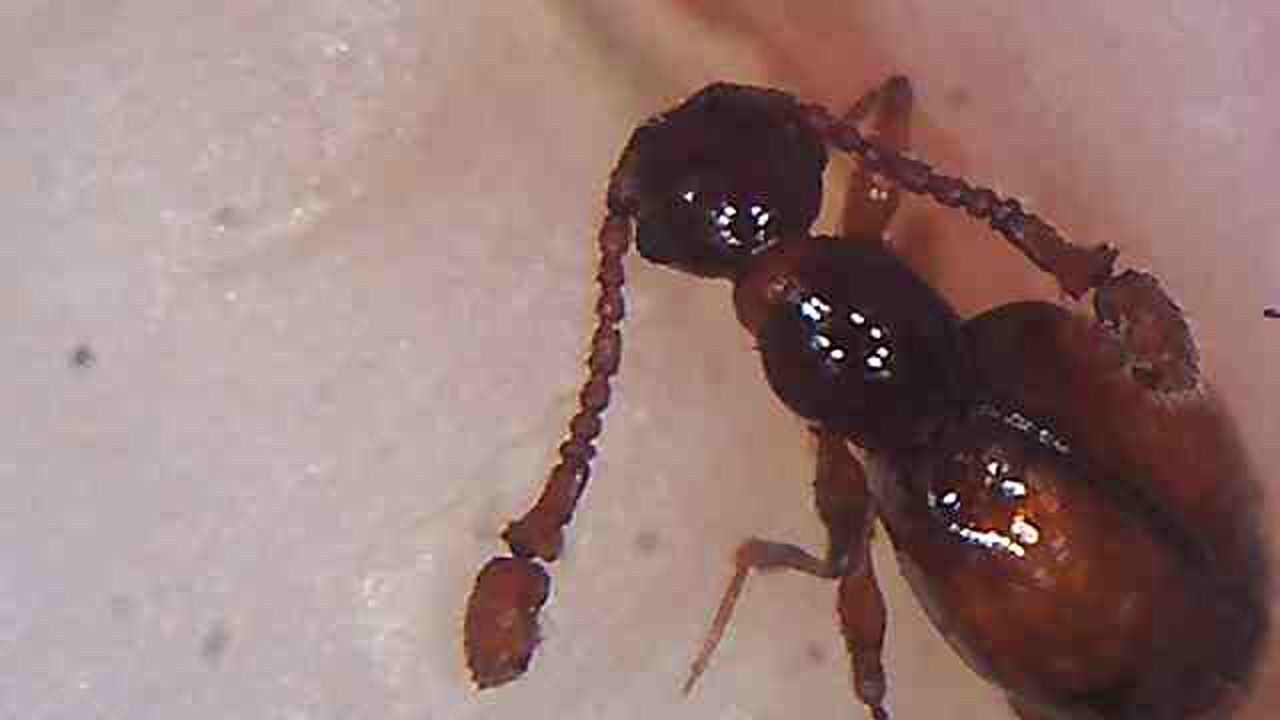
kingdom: Animalia
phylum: Arthropoda
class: Insecta
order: Coleoptera
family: Staphylinidae
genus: Eupines
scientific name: Eupines carinata
